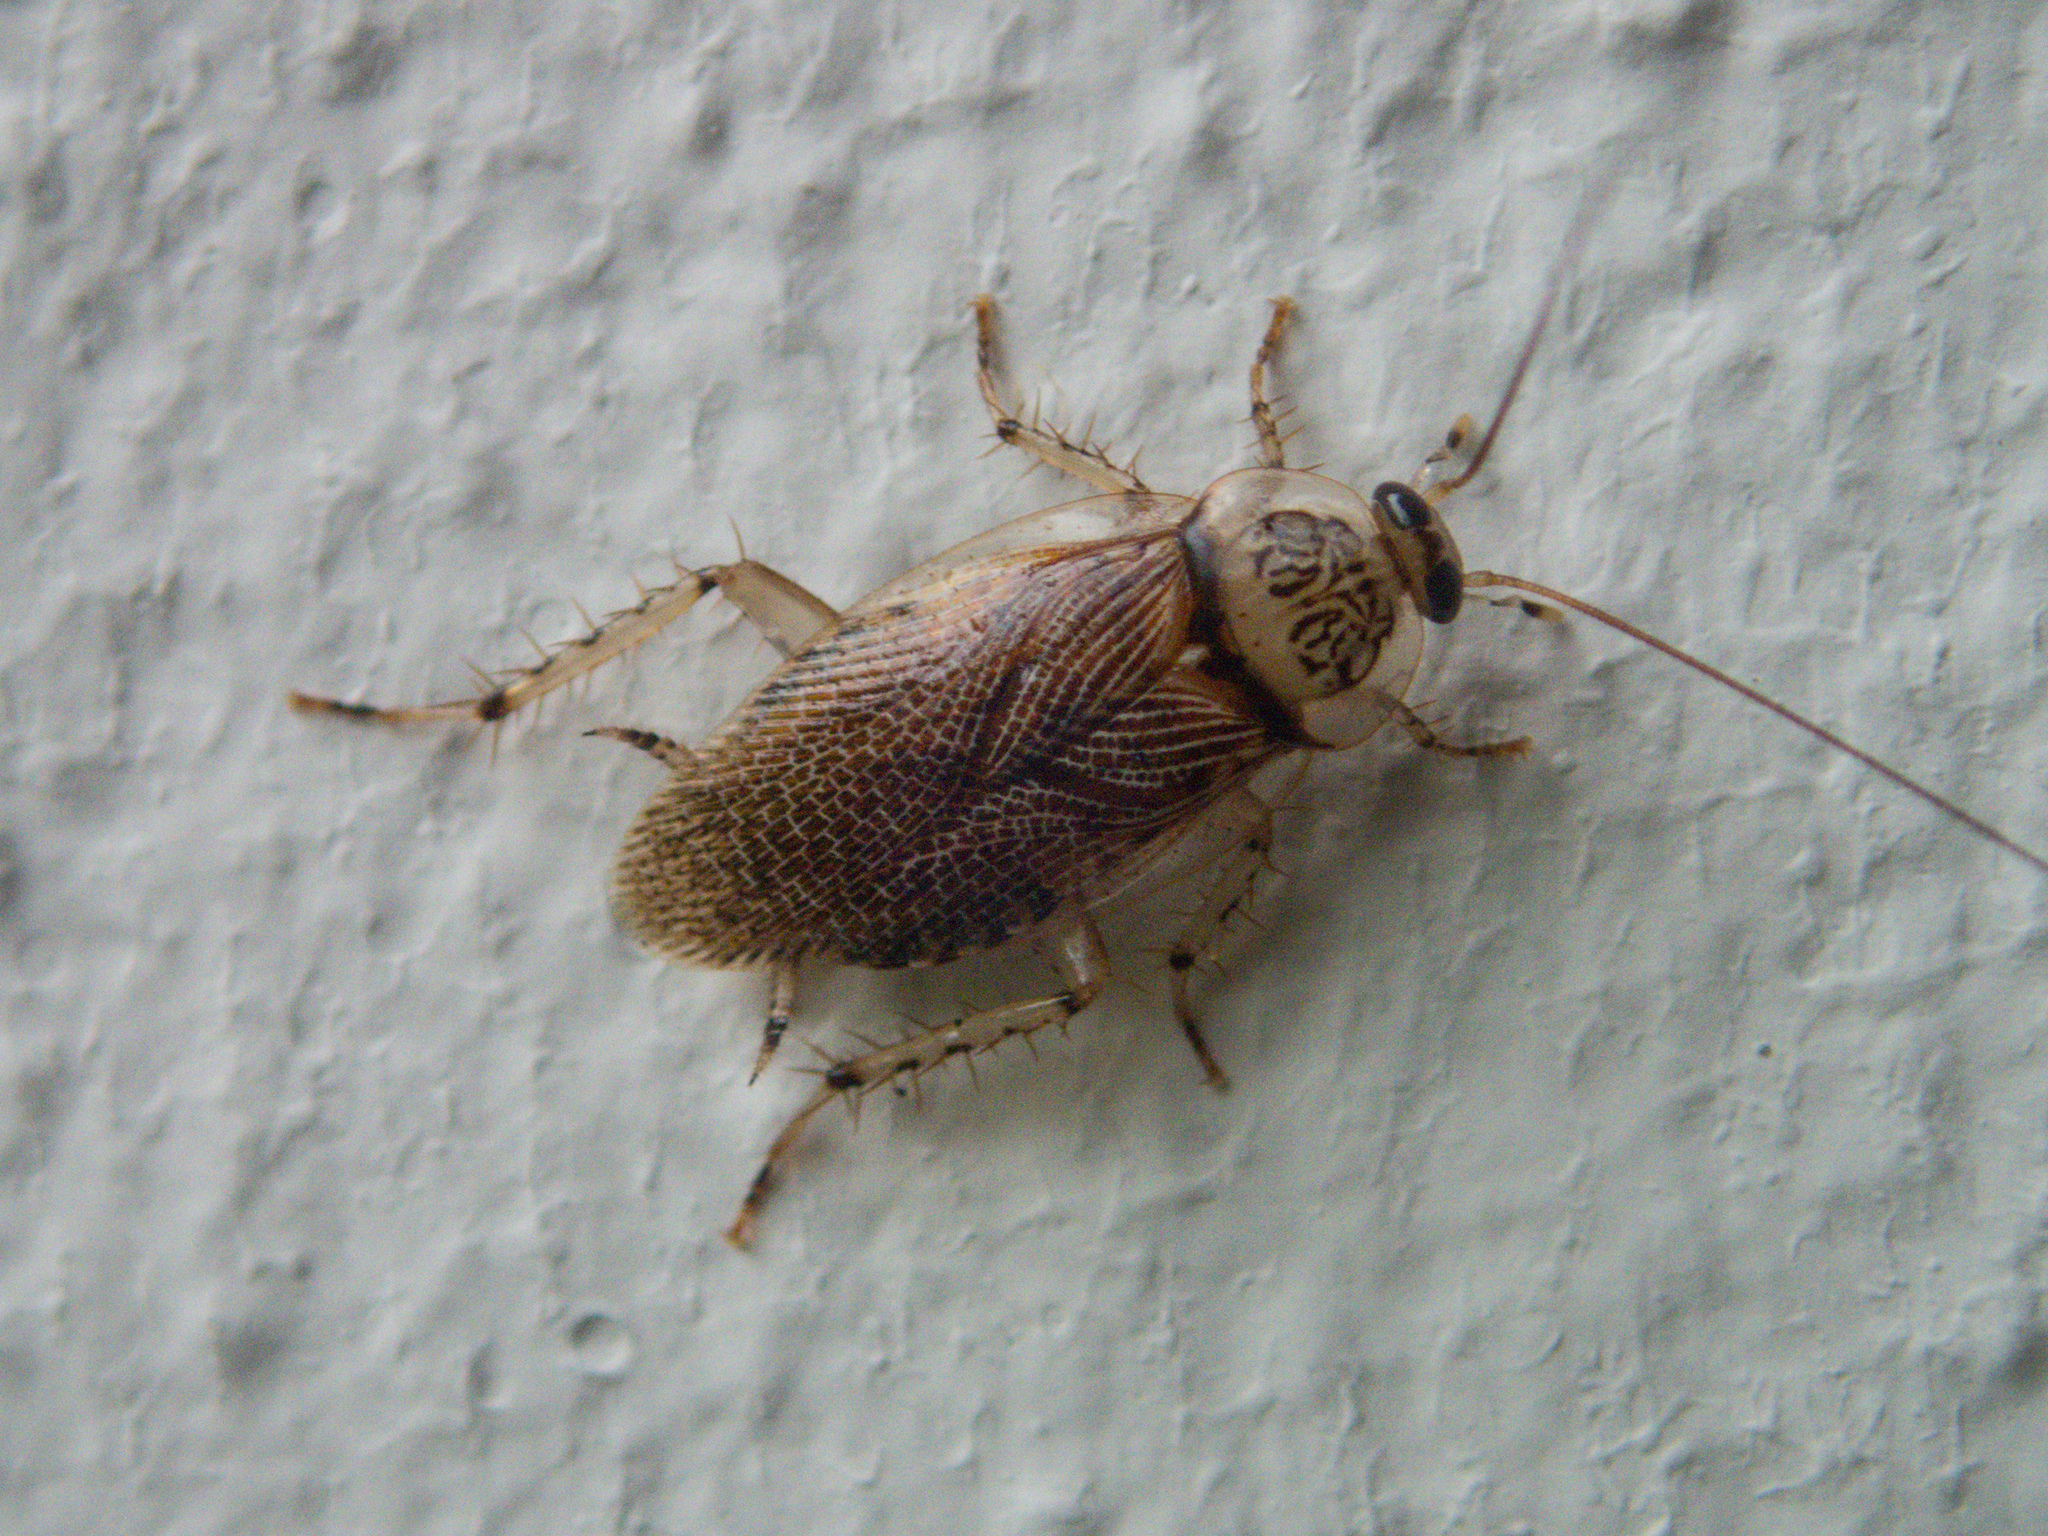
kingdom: Animalia
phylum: Arthropoda
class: Insecta
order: Blattodea
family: Ectobiidae
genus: Balta
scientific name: Balta notulata
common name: Cockroach
